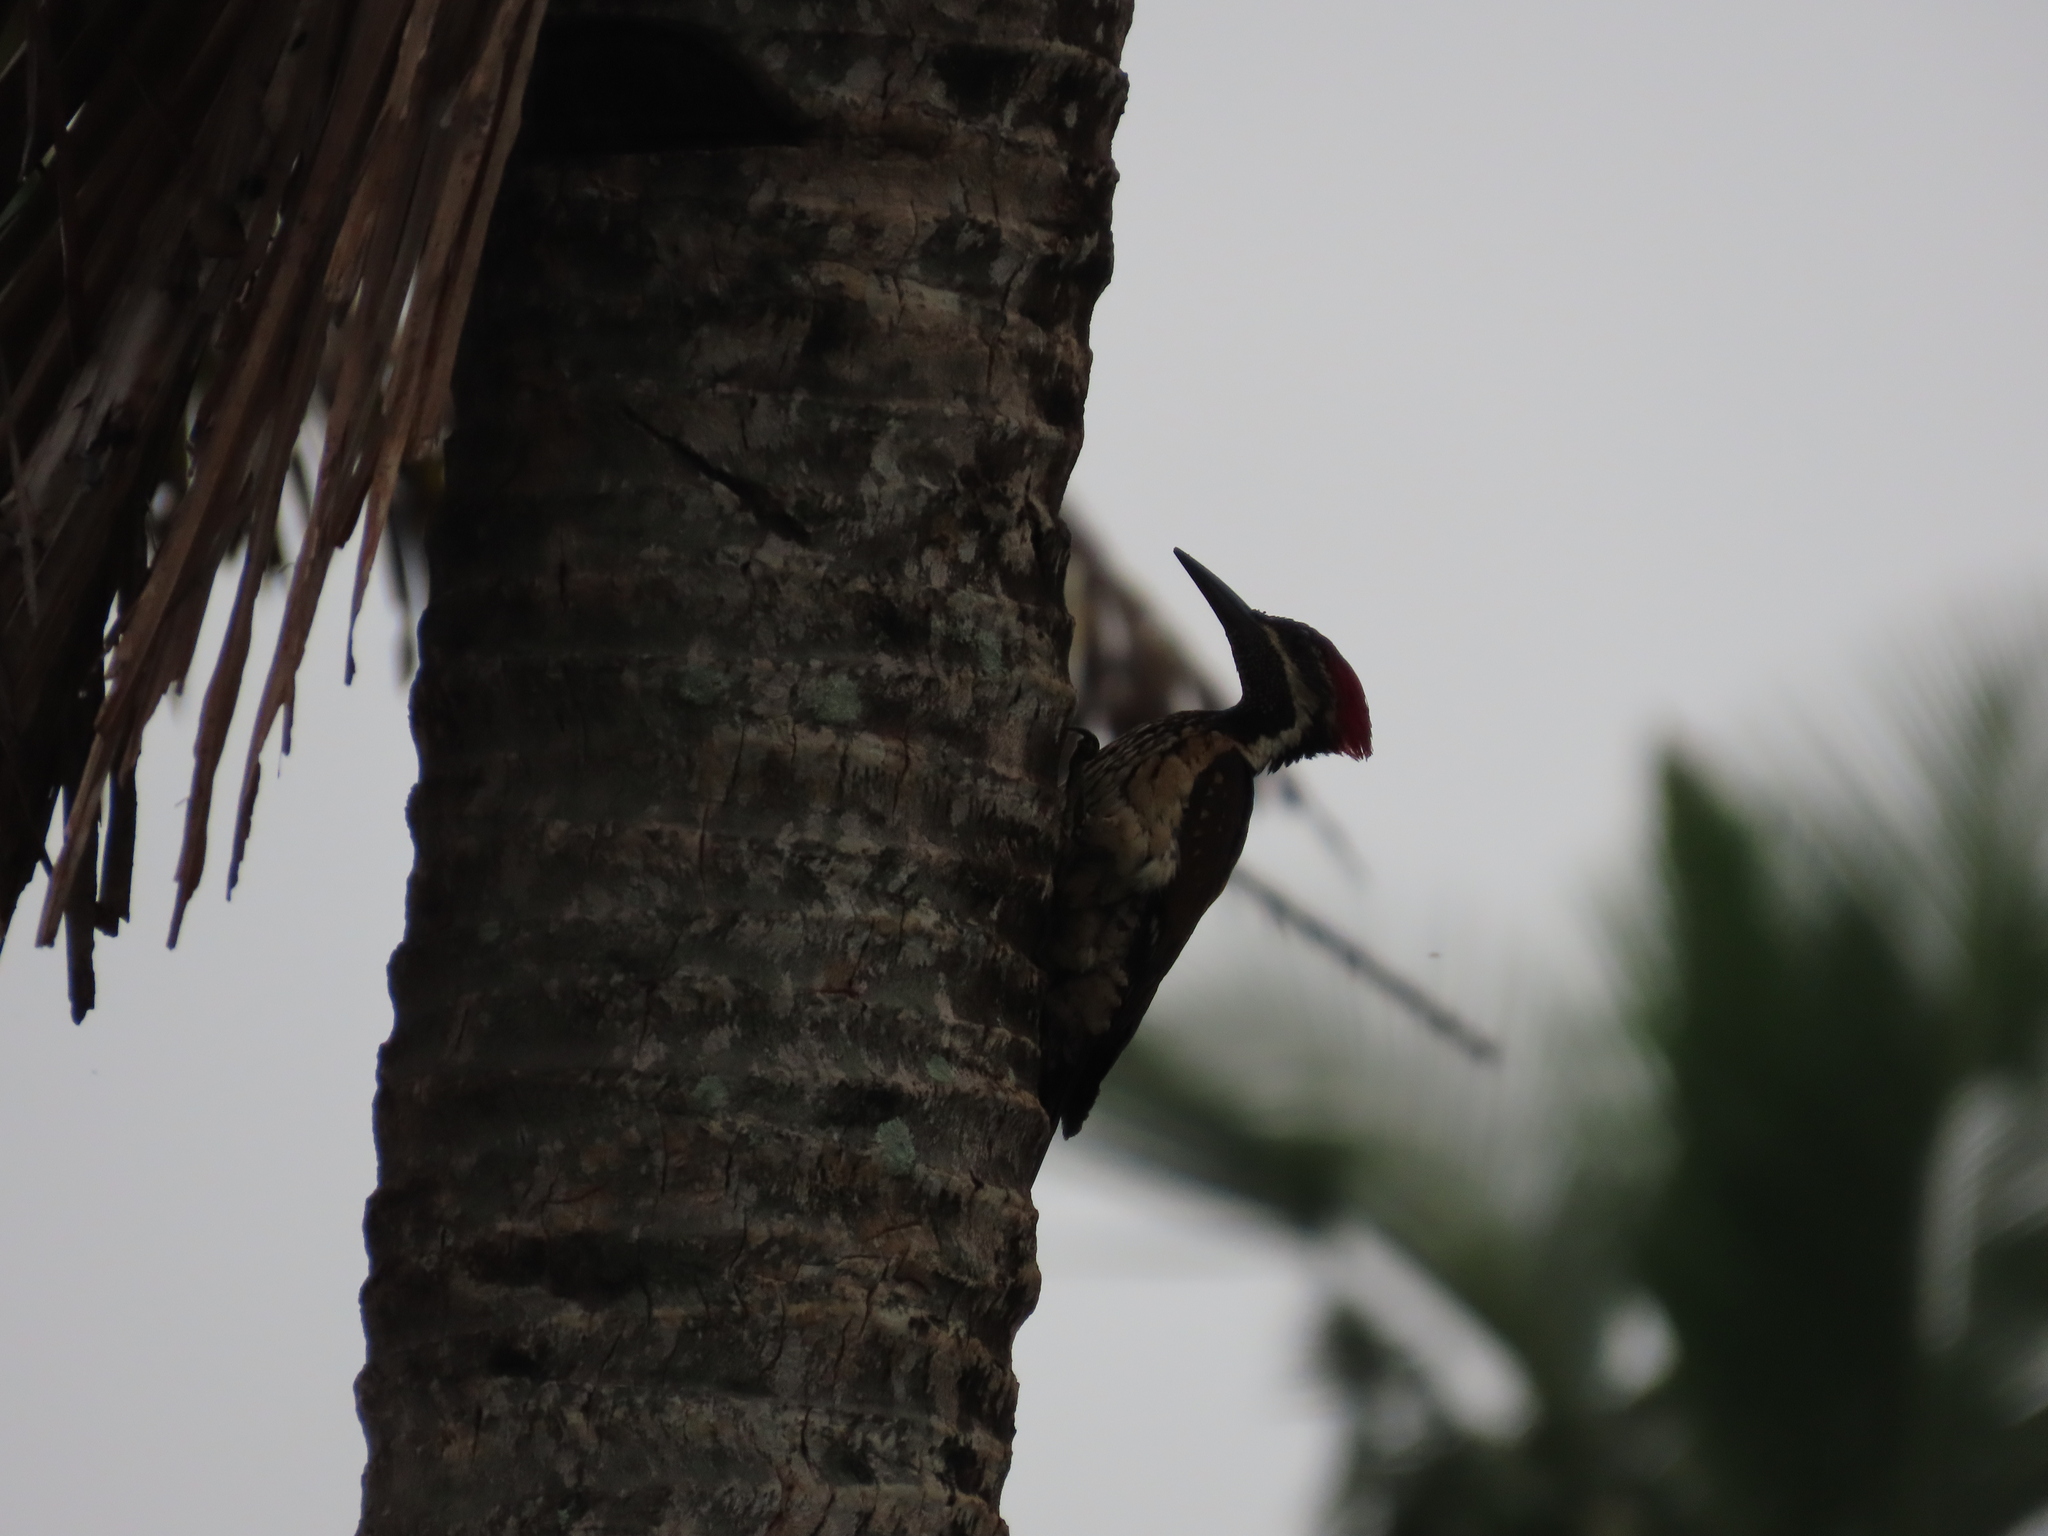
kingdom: Animalia
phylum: Chordata
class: Aves
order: Piciformes
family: Picidae
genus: Dinopium
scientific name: Dinopium benghalense
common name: Black-rumped flameback
